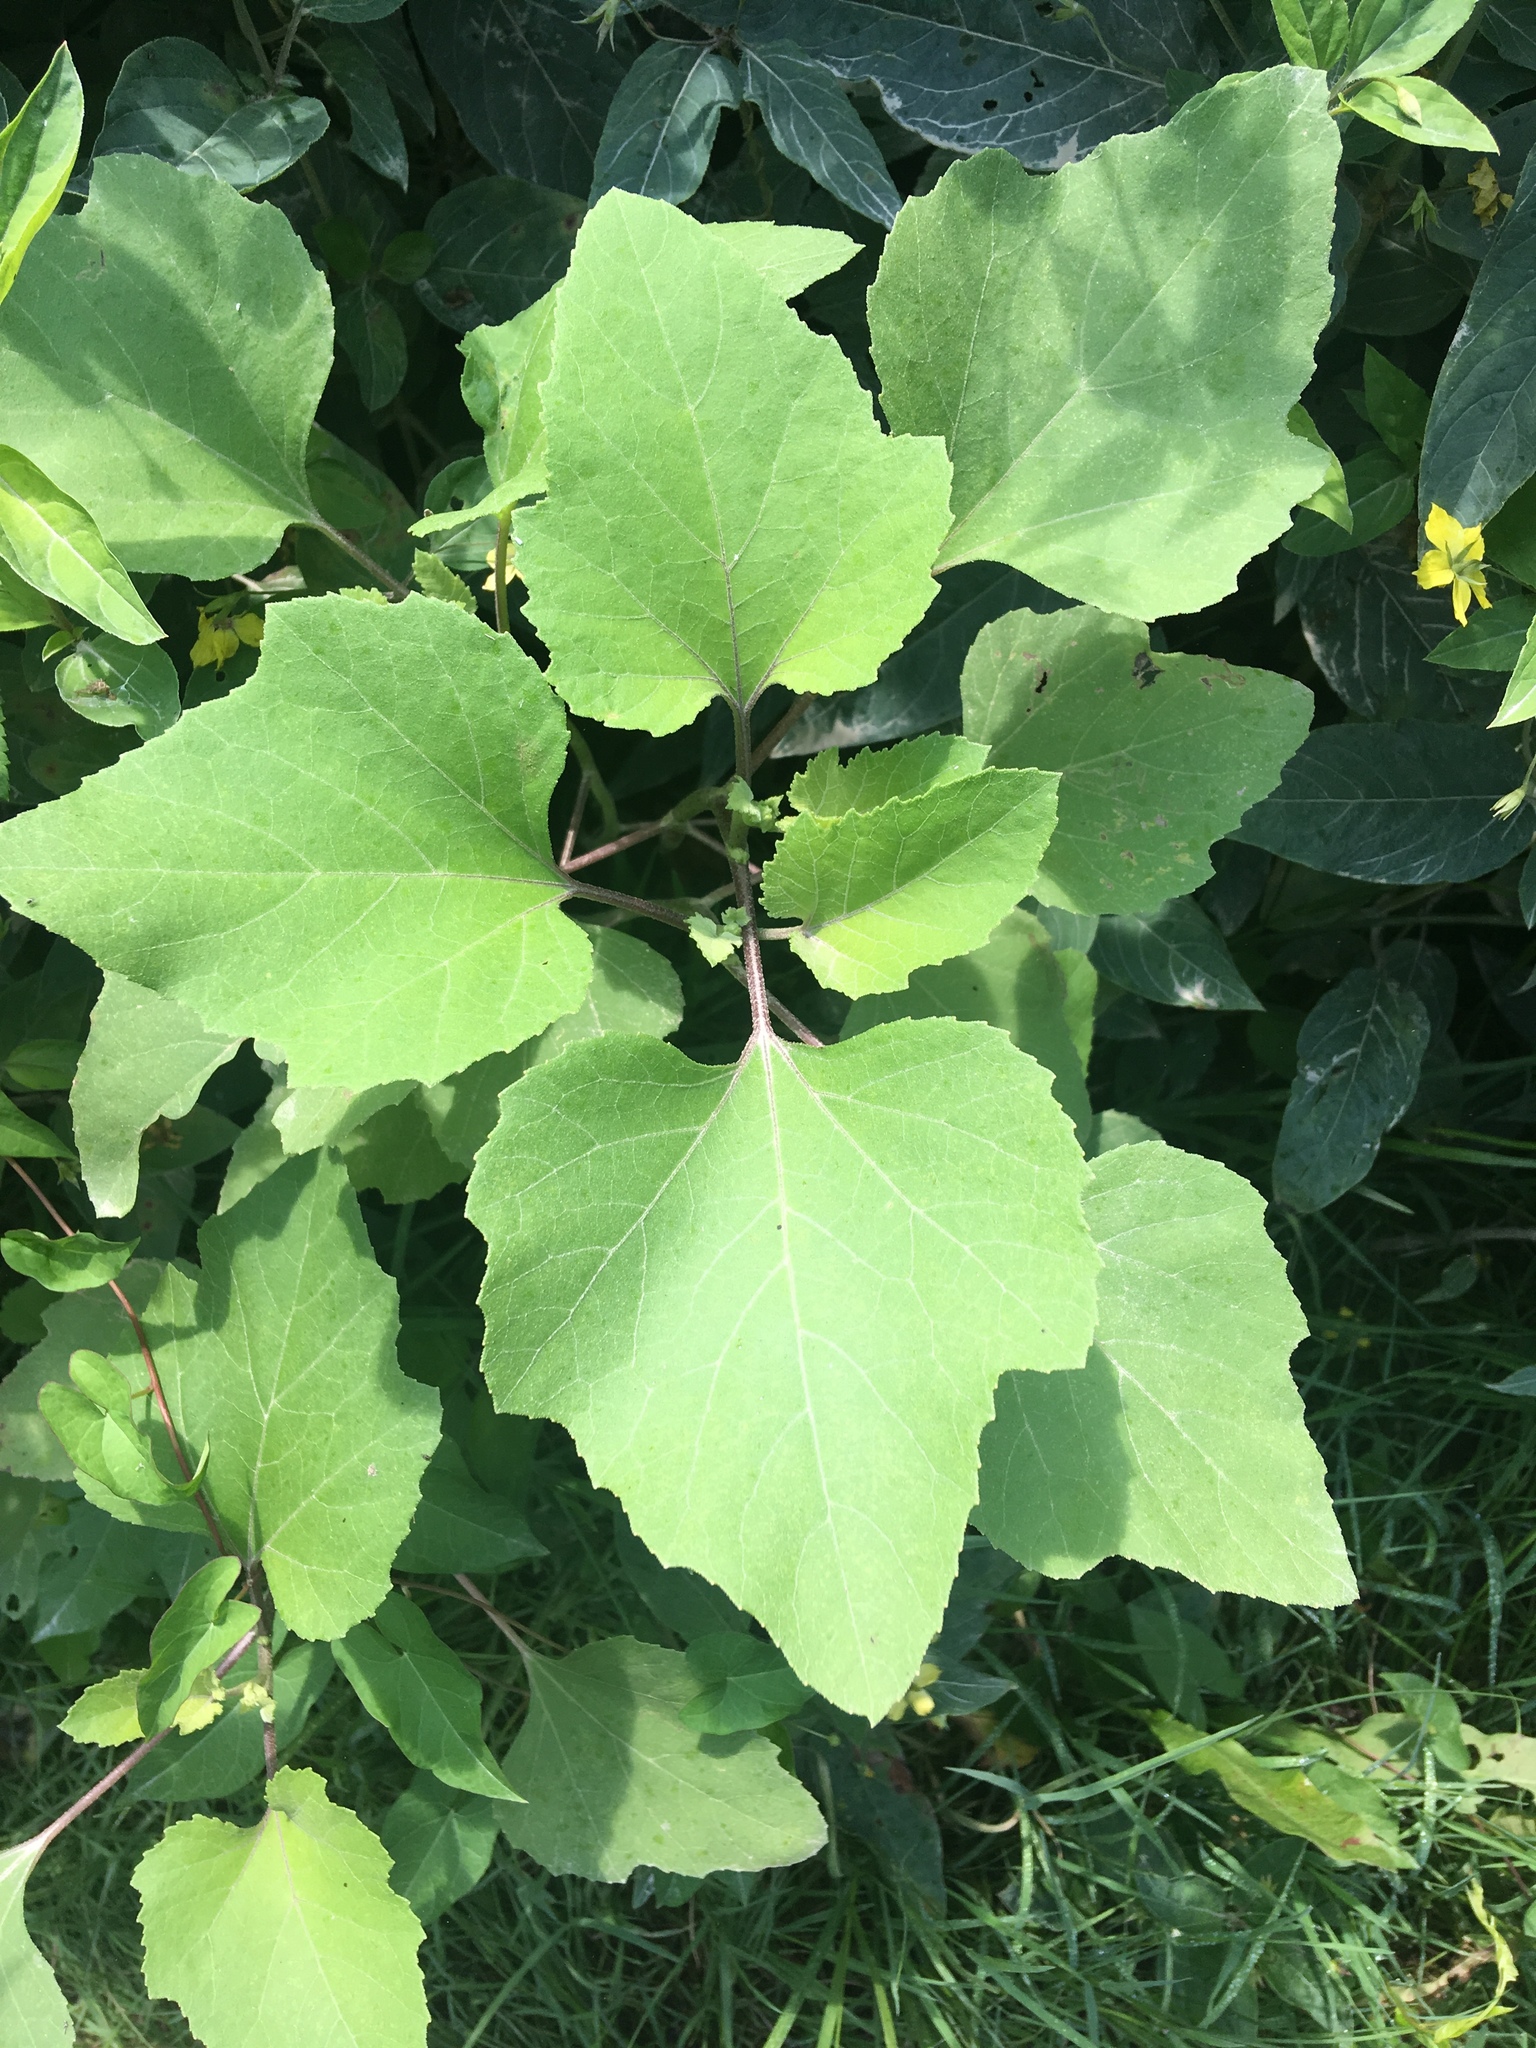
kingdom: Plantae
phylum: Tracheophyta
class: Magnoliopsida
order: Asterales
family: Asteraceae
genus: Xanthium
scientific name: Xanthium strumarium
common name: Rough cocklebur
